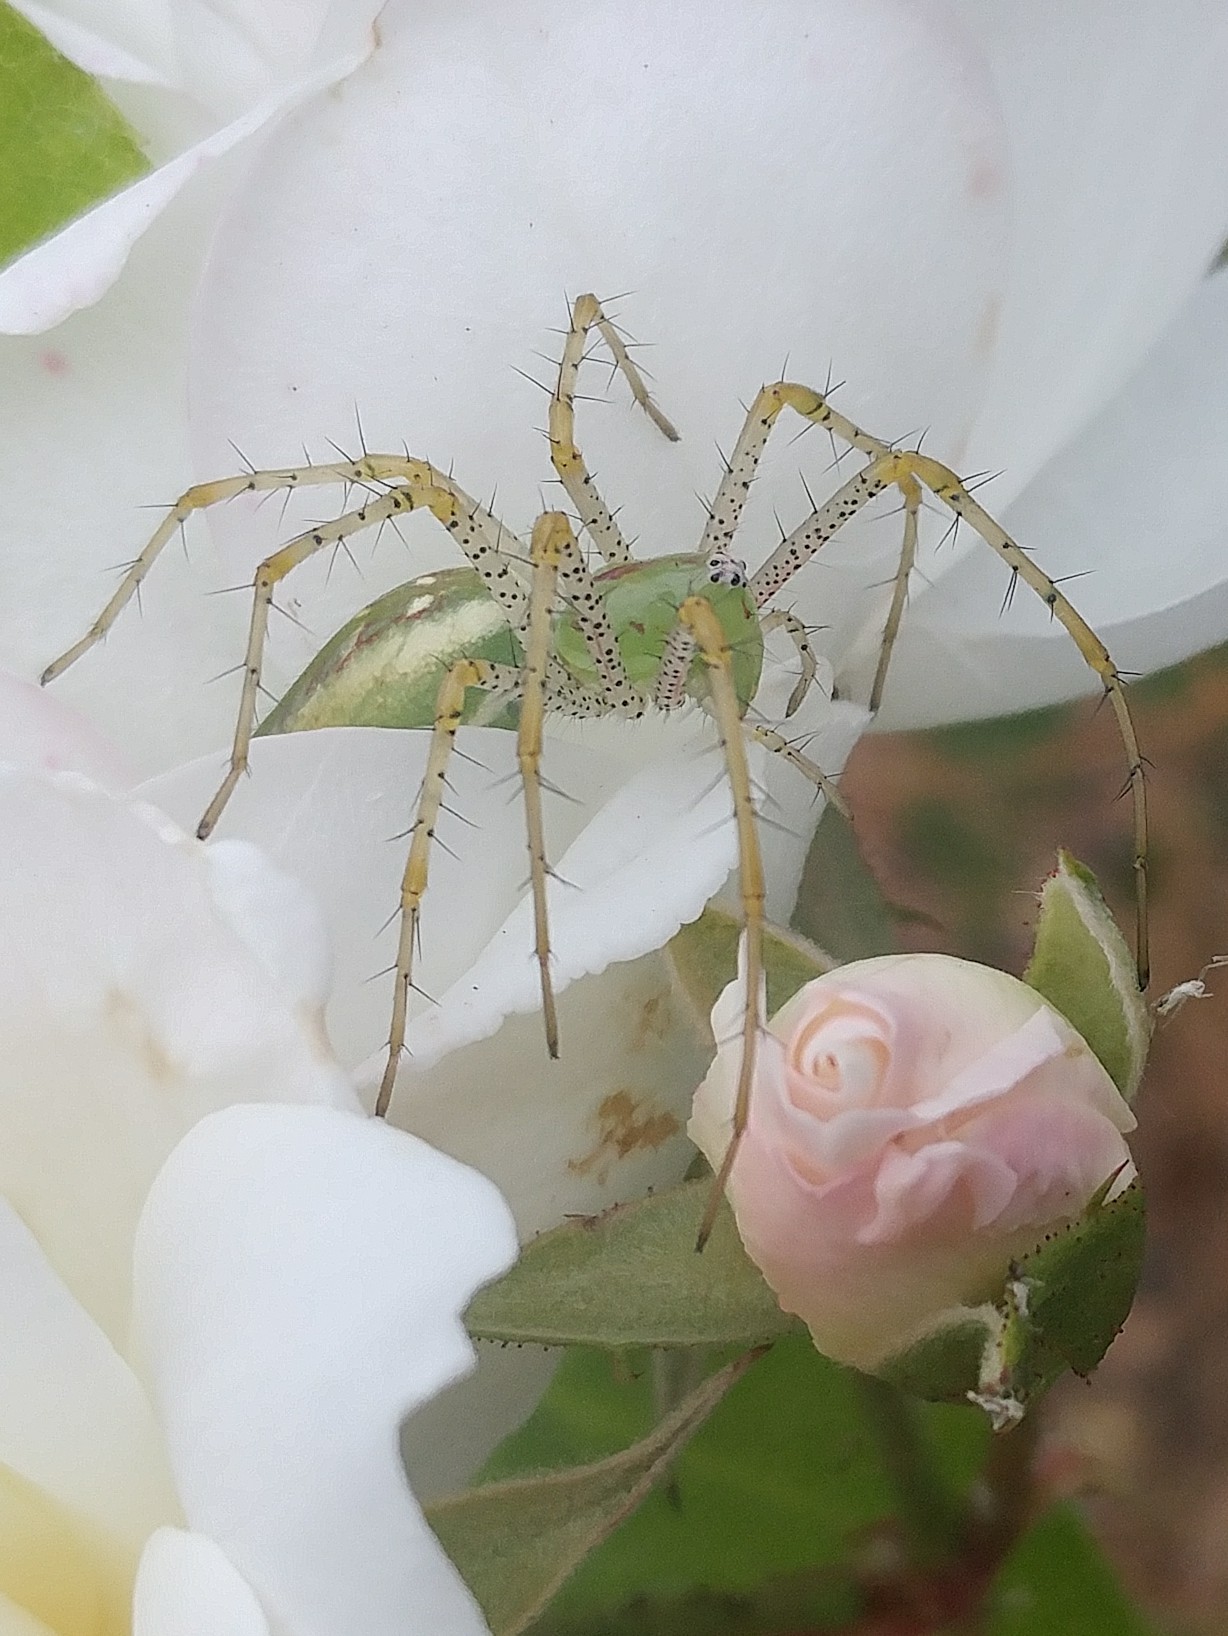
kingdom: Animalia
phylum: Arthropoda
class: Arachnida
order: Araneae
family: Oxyopidae
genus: Peucetia
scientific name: Peucetia viridans
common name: Lynx spiders
